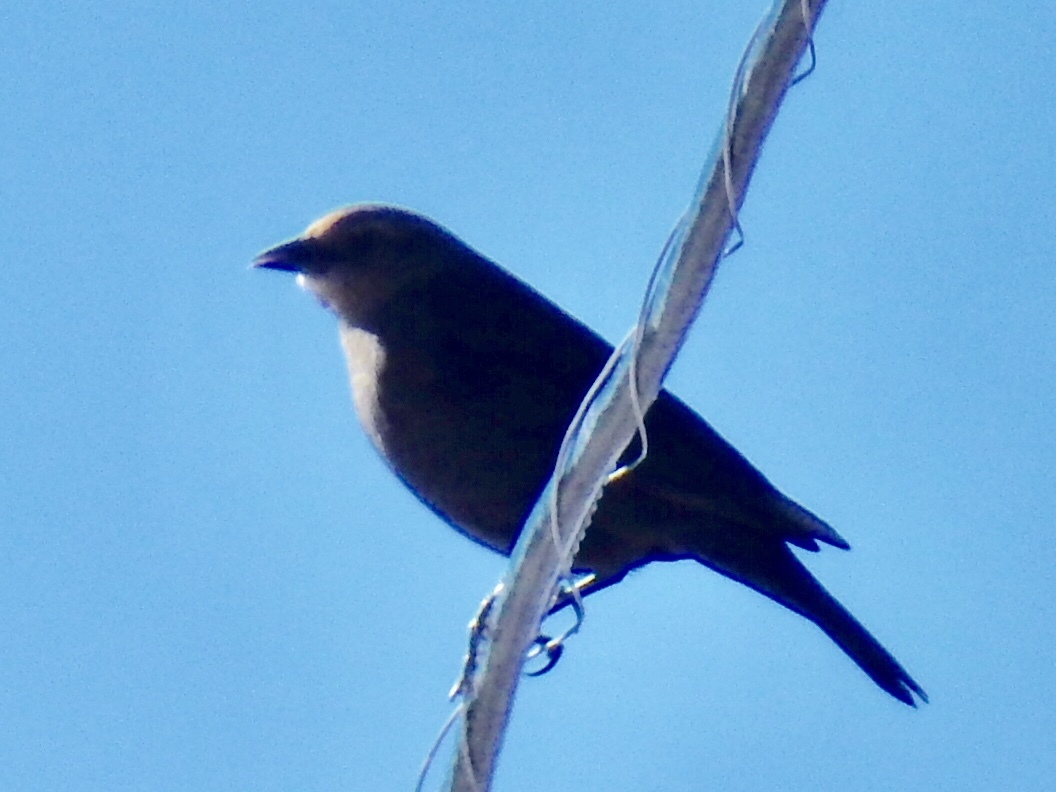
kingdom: Animalia
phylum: Chordata
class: Aves
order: Passeriformes
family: Icteridae
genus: Molothrus
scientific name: Molothrus ater
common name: Brown-headed cowbird
